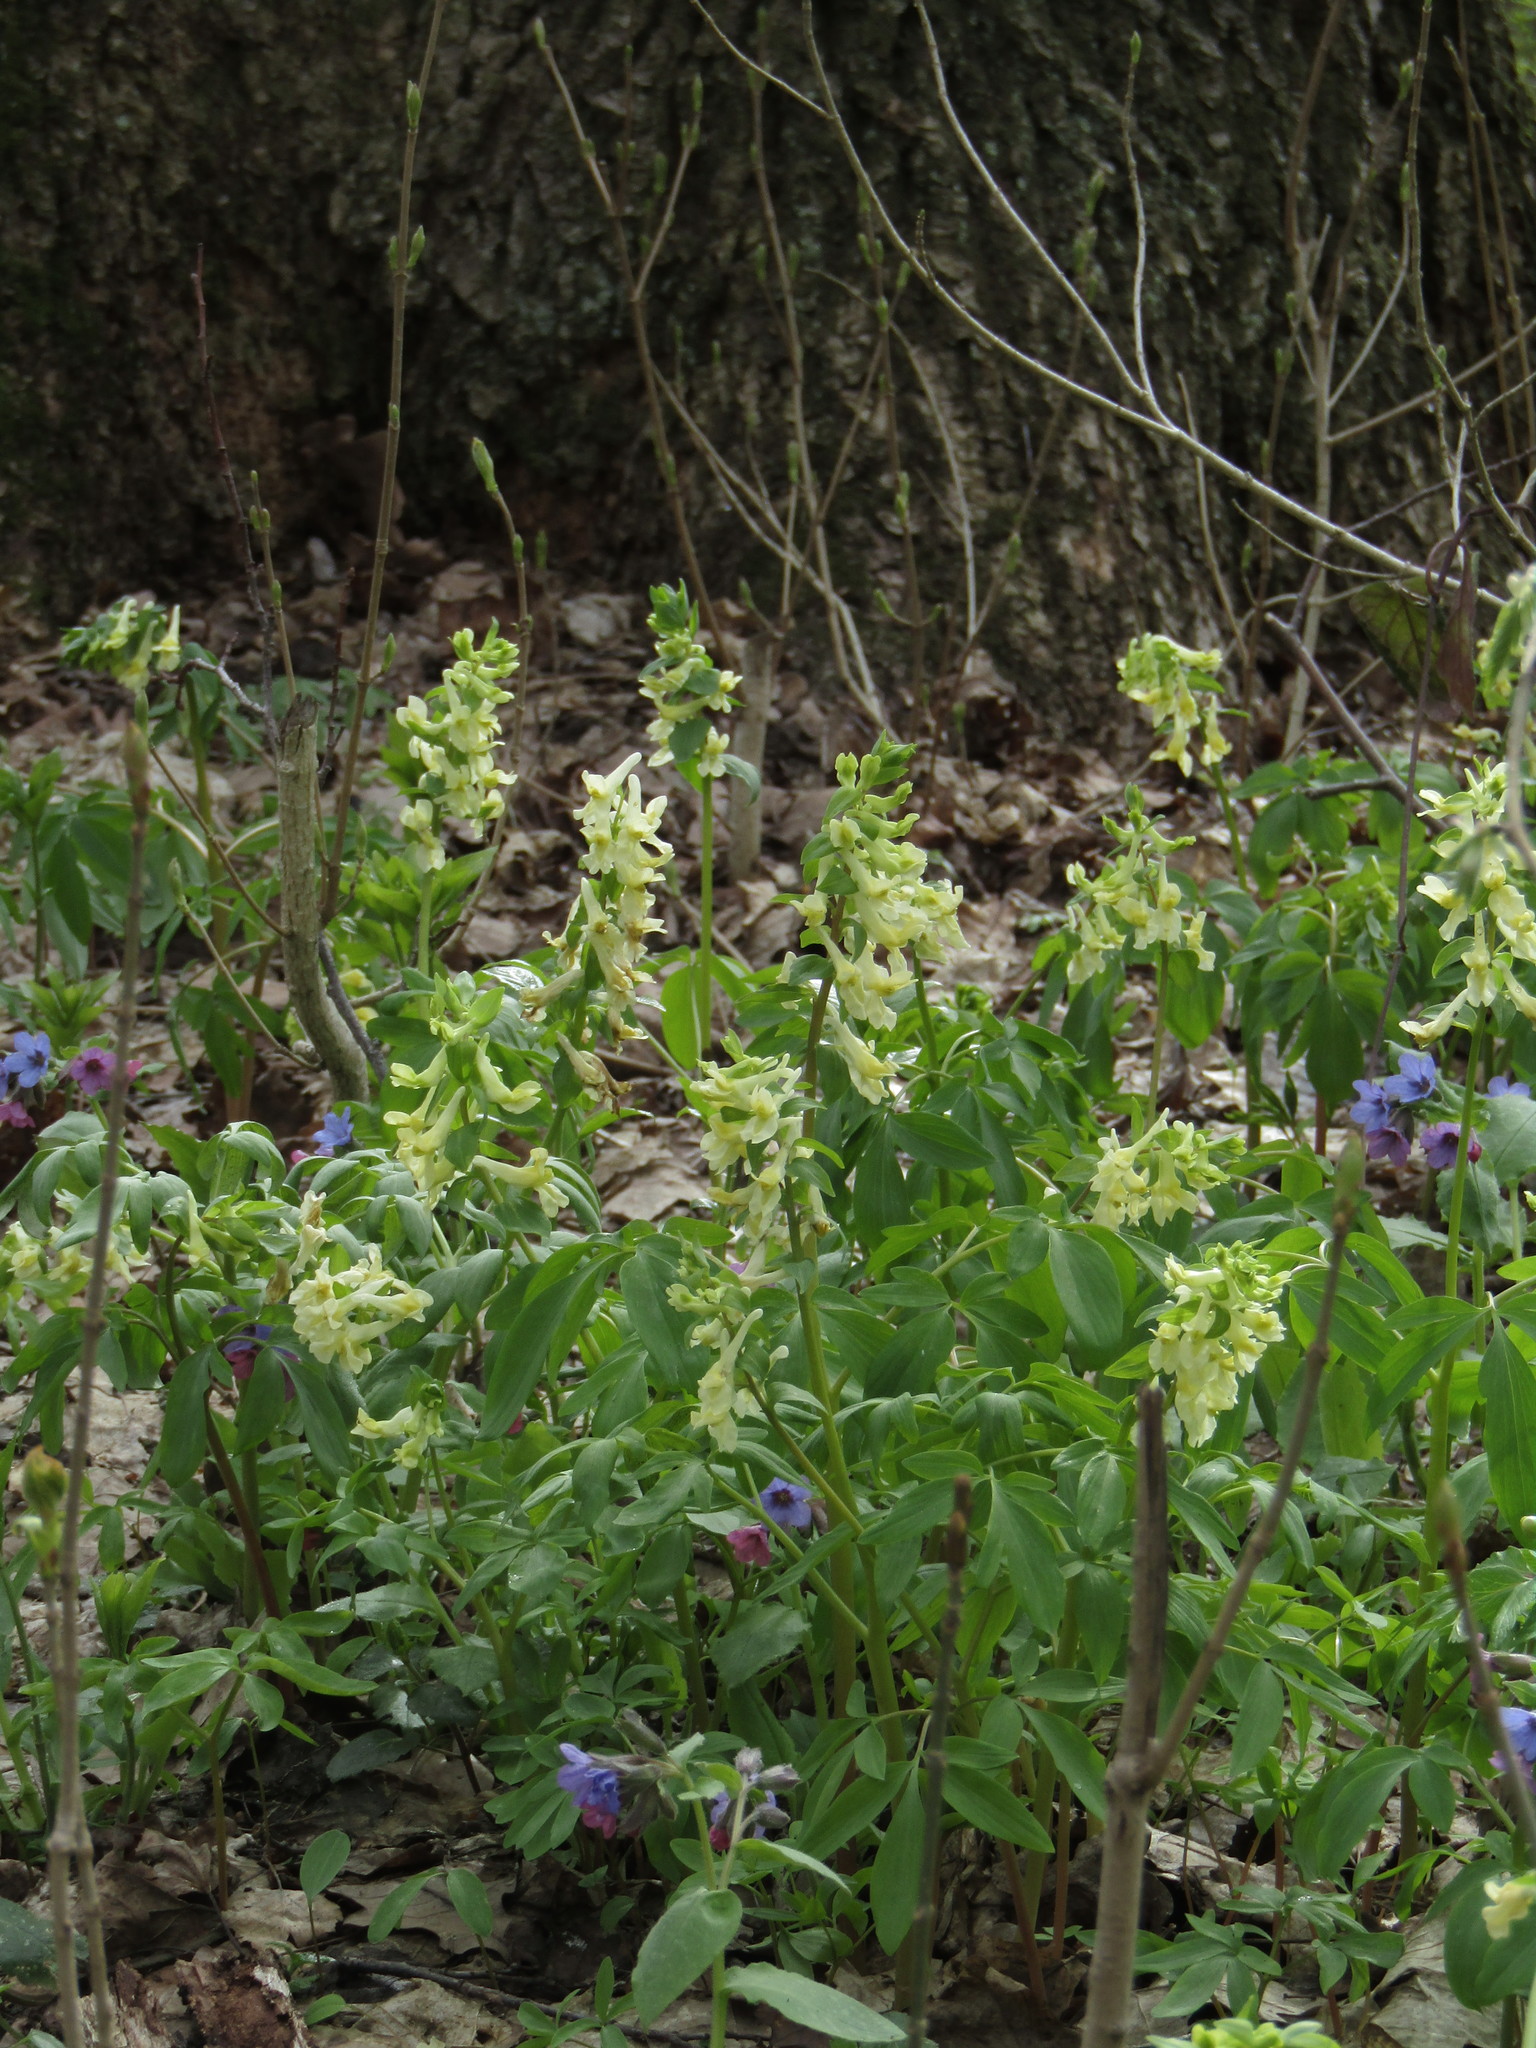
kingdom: Plantae
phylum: Tracheophyta
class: Magnoliopsida
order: Ranunculales
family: Papaveraceae
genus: Corydalis
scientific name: Corydalis cava
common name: Hollowroot
